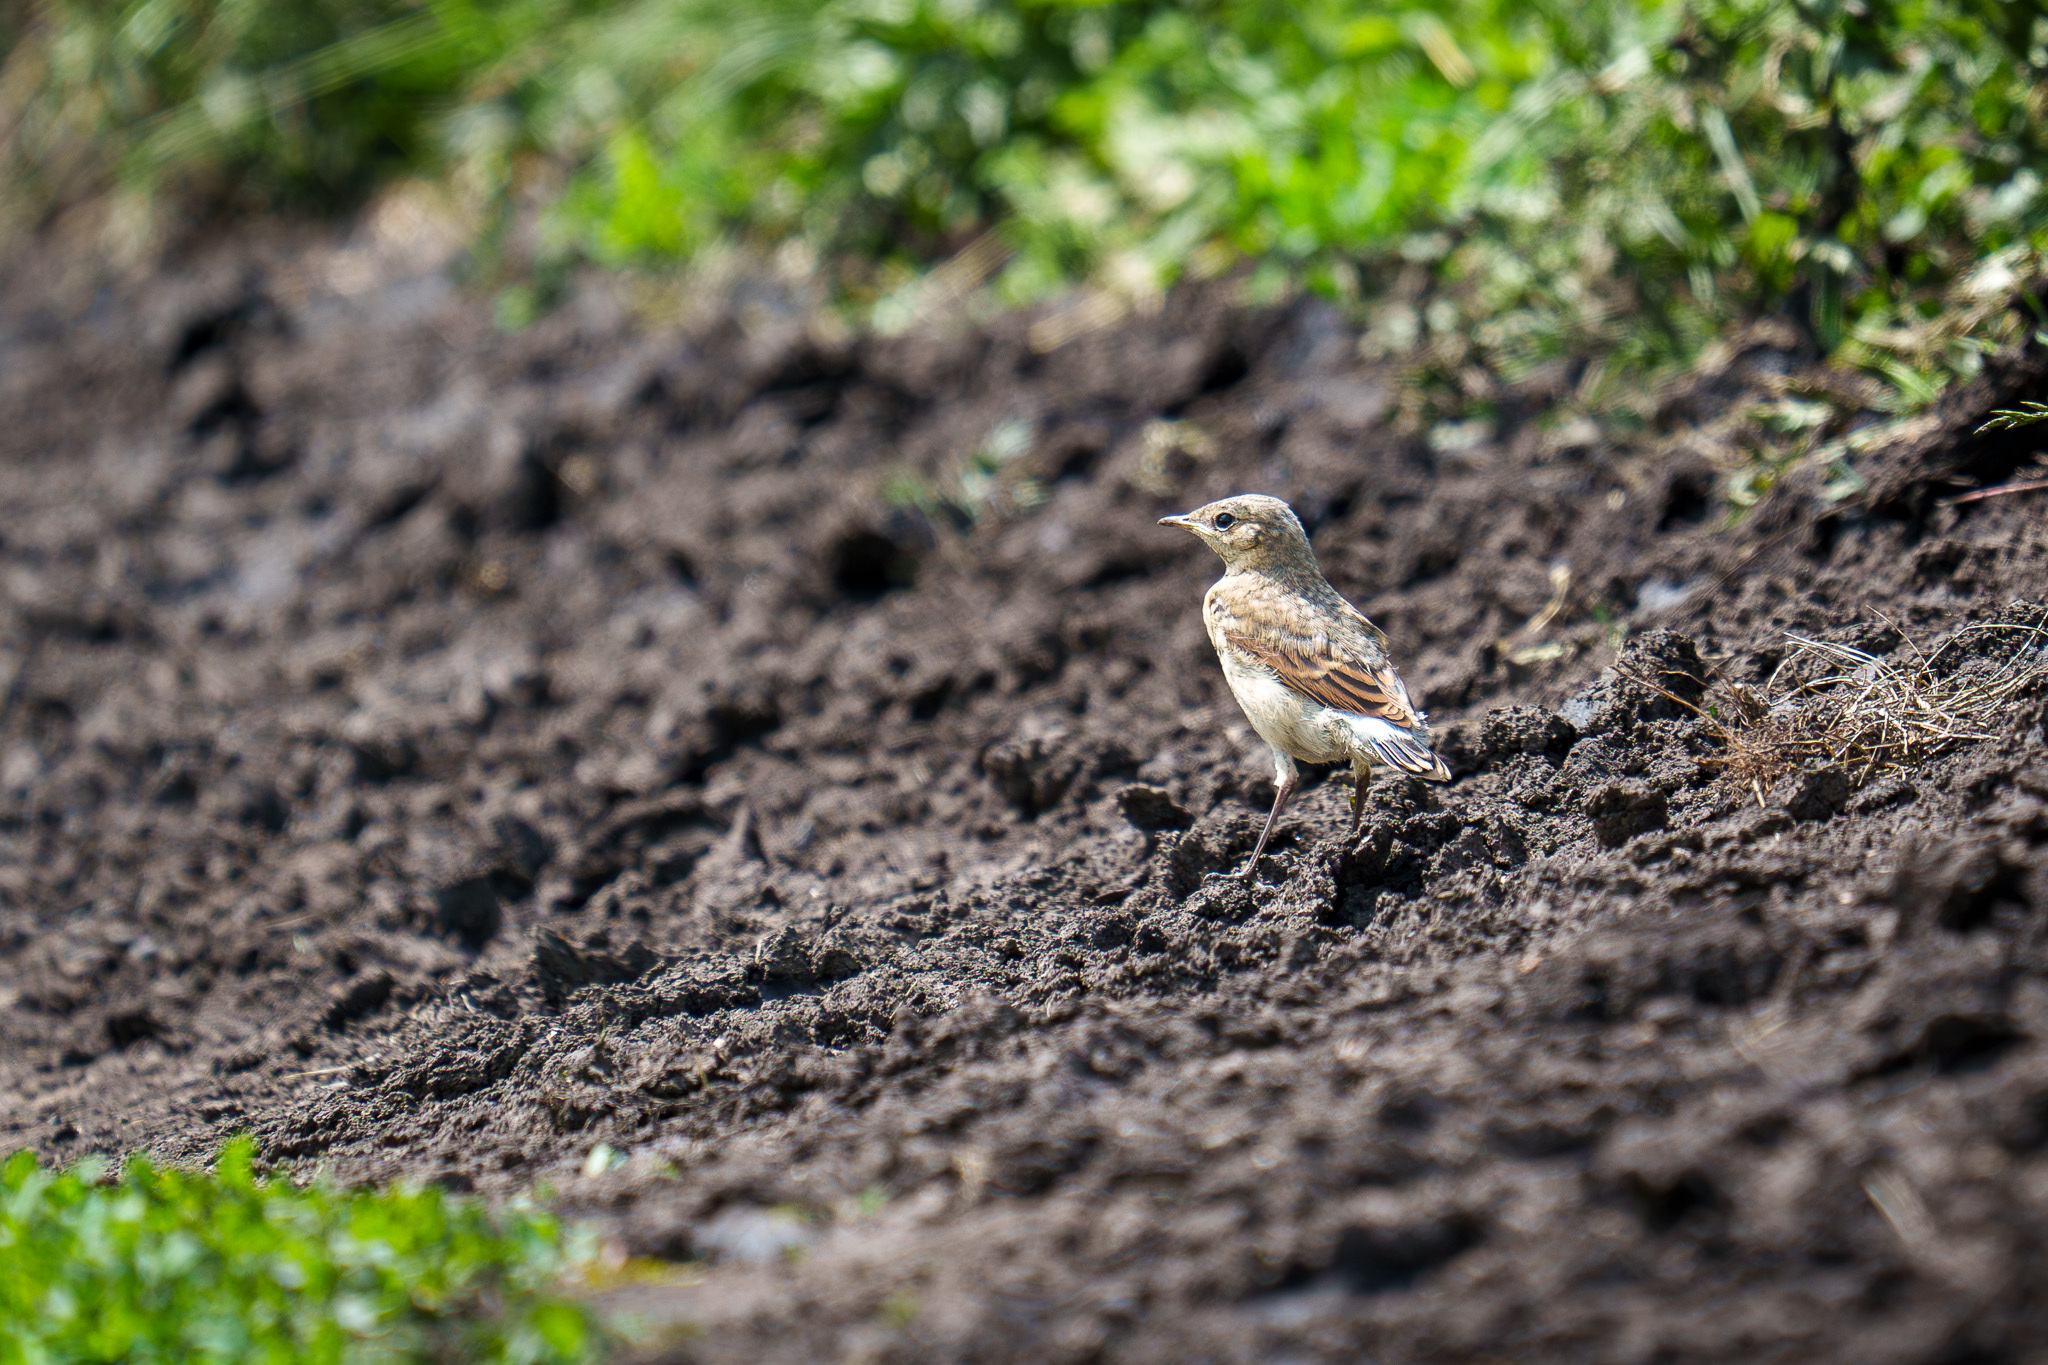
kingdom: Animalia
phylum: Chordata
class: Aves
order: Passeriformes
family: Muscicapidae
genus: Oenanthe
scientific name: Oenanthe oenanthe
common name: Northern wheatear
